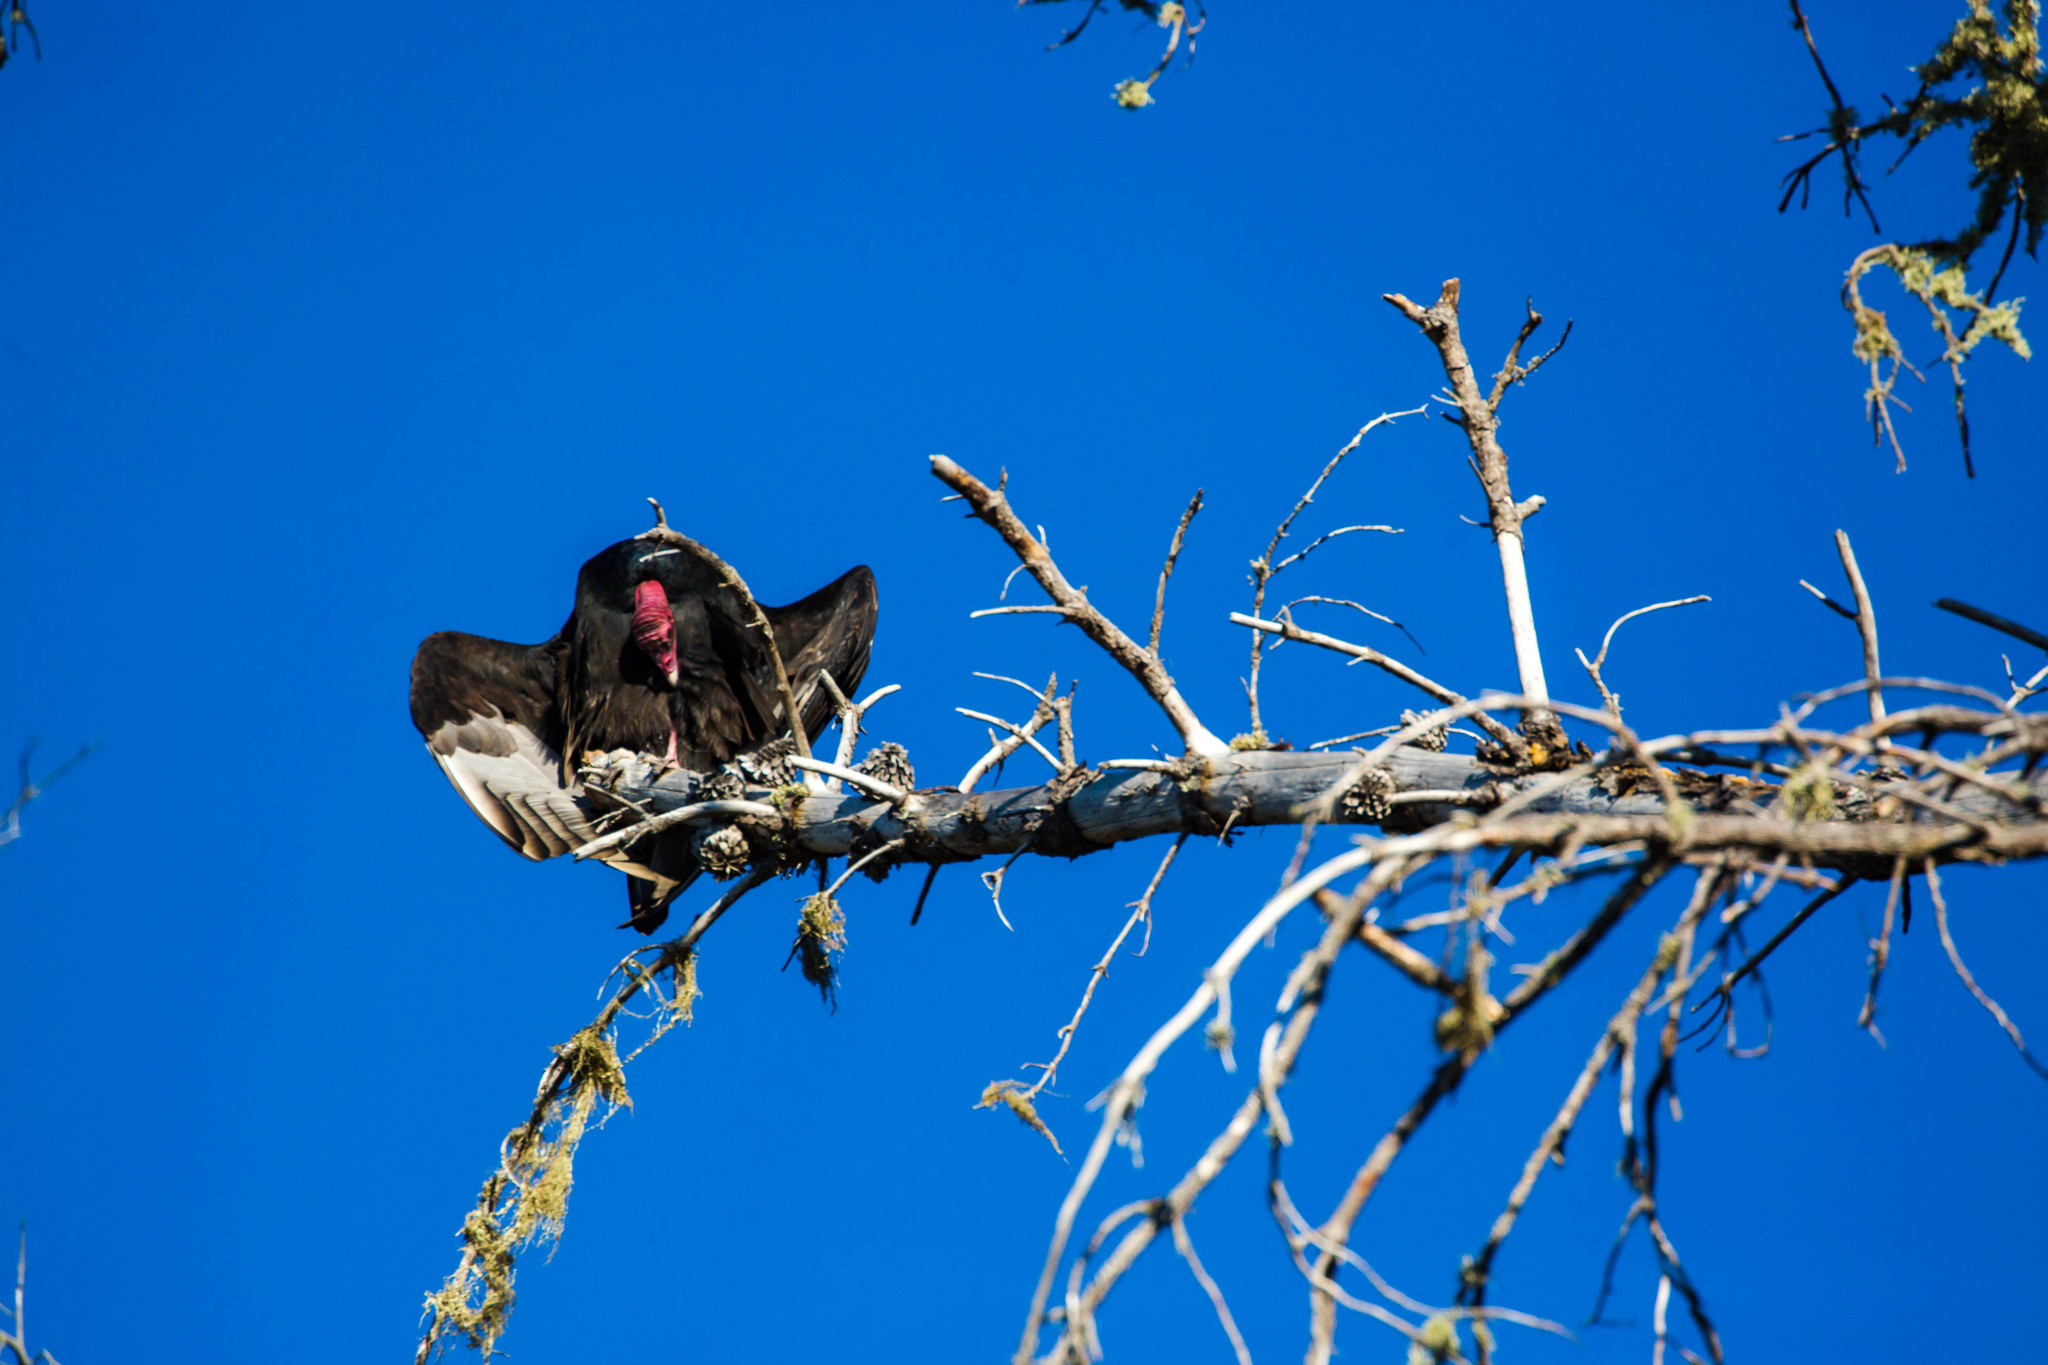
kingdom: Animalia
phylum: Chordata
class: Aves
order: Accipitriformes
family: Cathartidae
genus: Cathartes
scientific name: Cathartes aura
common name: Turkey vulture
